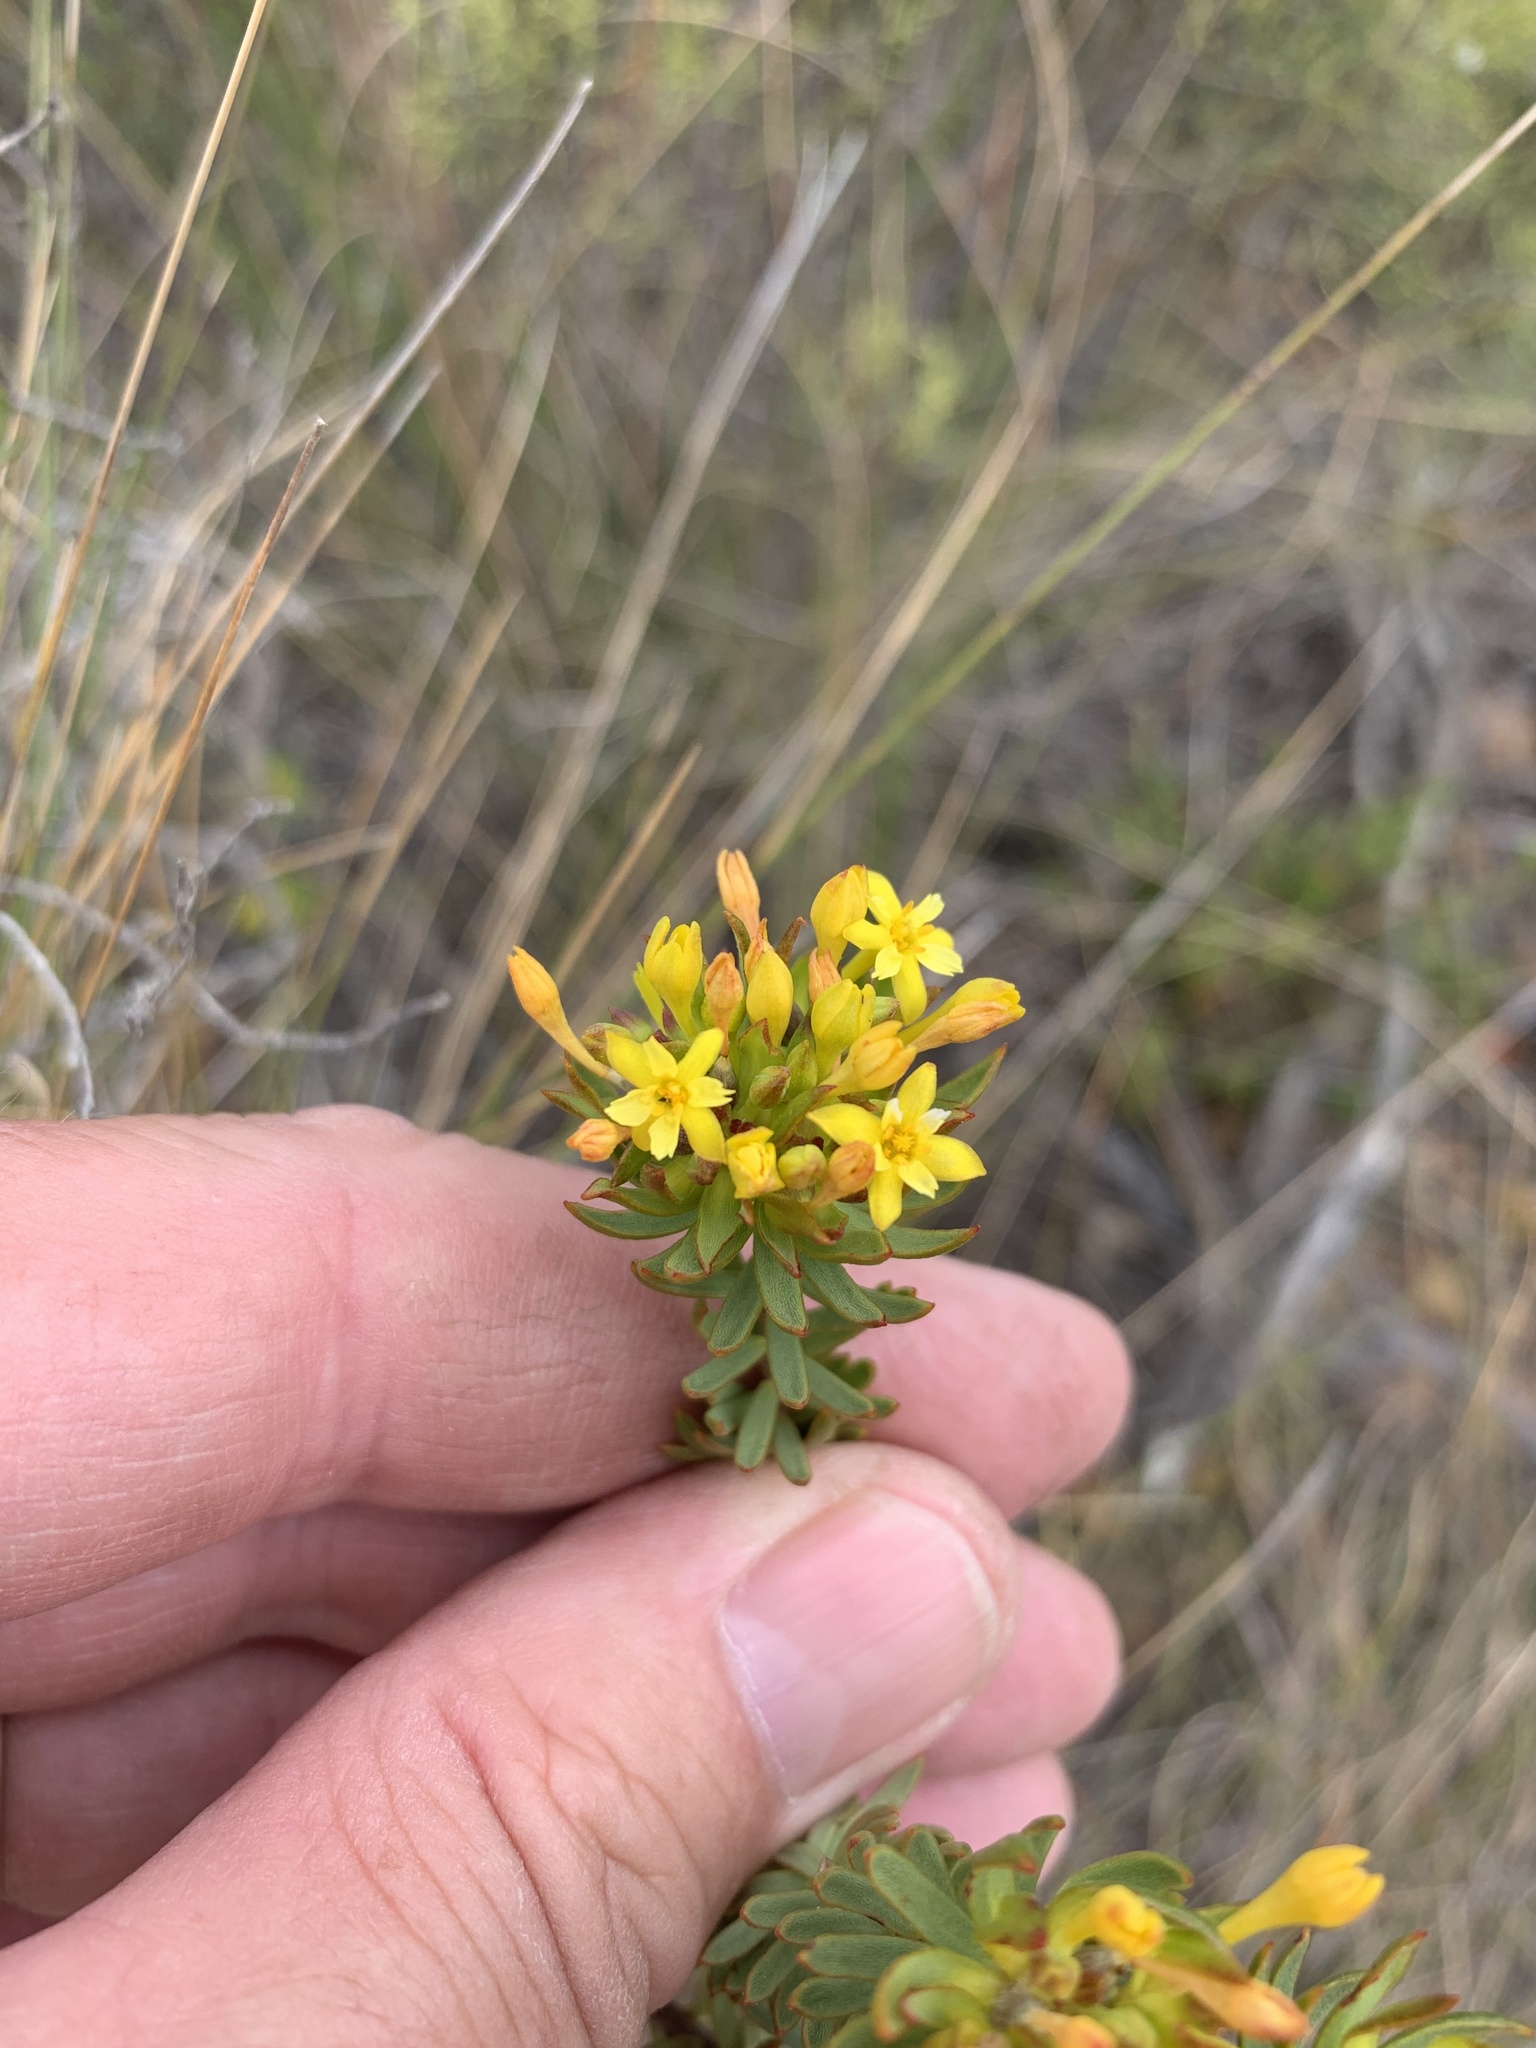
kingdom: Plantae
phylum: Tracheophyta
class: Magnoliopsida
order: Malvales
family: Thymelaeaceae
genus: Gnidia
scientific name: Gnidia juniperifolia
